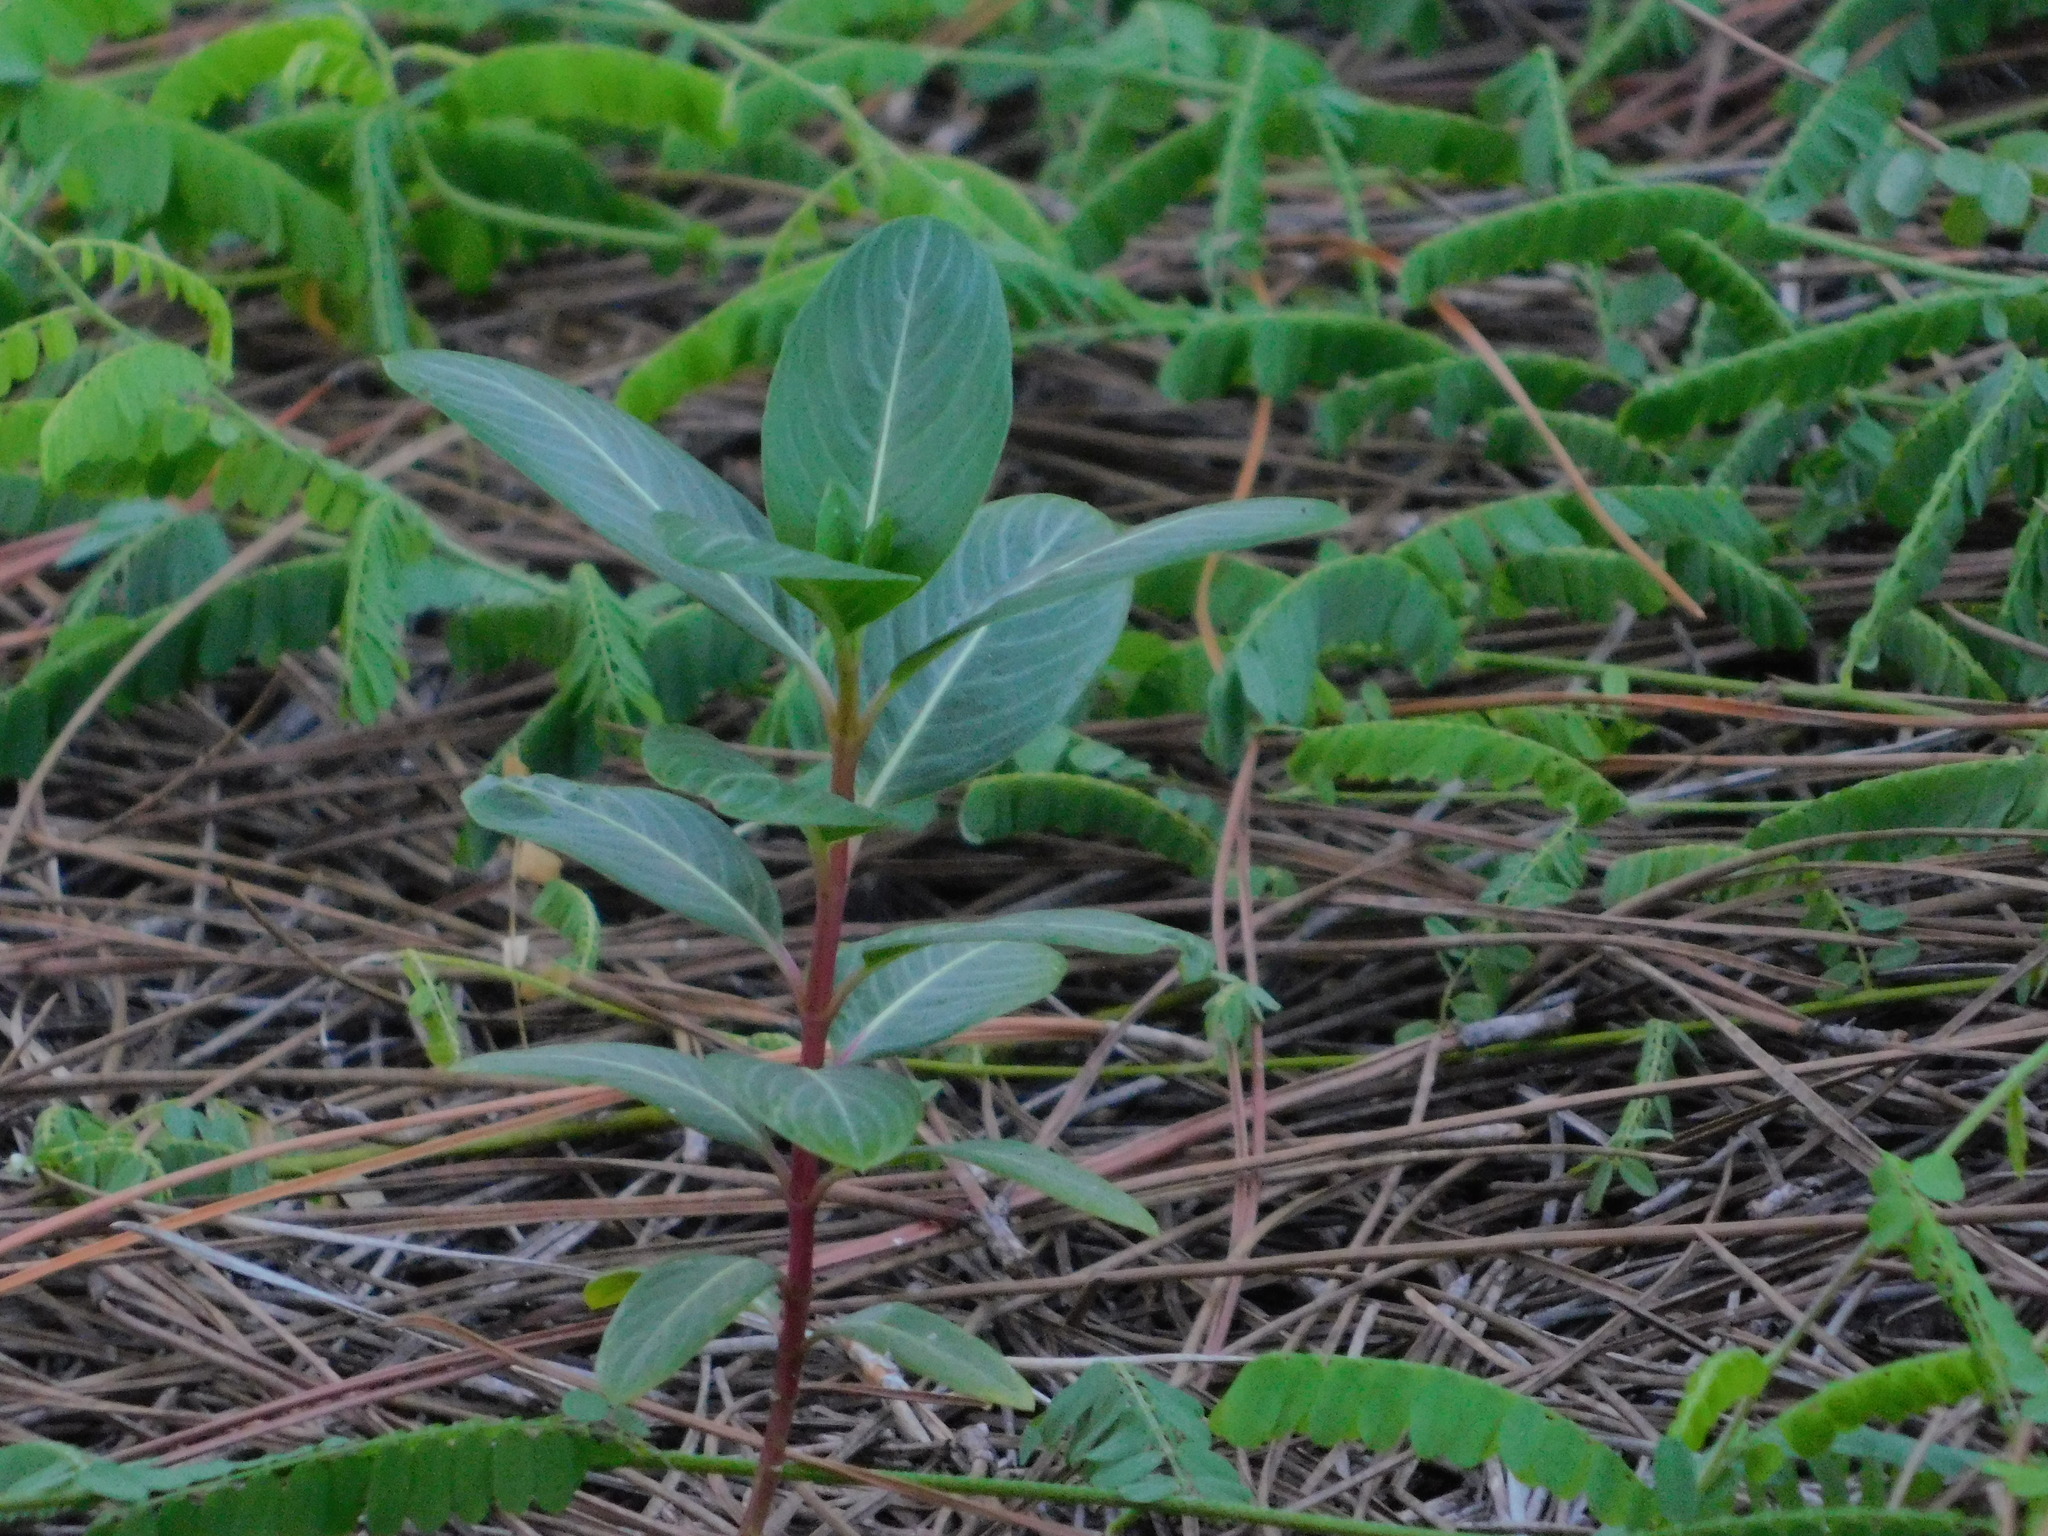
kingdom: Plantae
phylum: Tracheophyta
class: Magnoliopsida
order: Gentianales
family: Apocynaceae
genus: Catharanthus
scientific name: Catharanthus roseus
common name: Madagascar periwinkle
